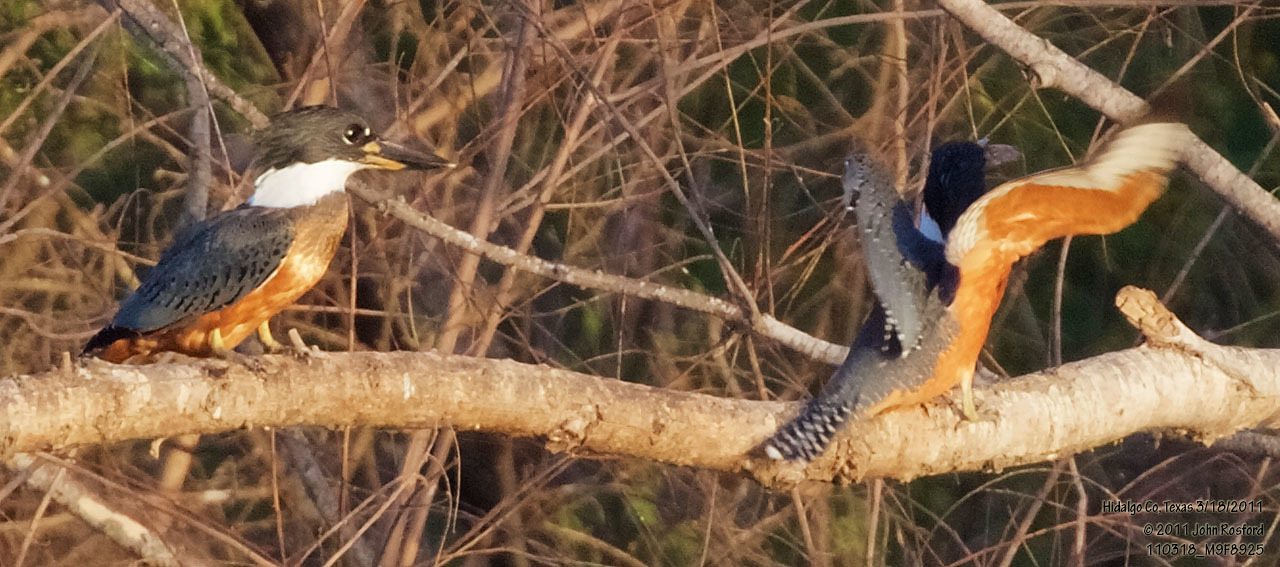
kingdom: Animalia
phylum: Chordata
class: Aves
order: Coraciiformes
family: Alcedinidae
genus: Megaceryle
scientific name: Megaceryle torquata
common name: Ringed kingfisher
